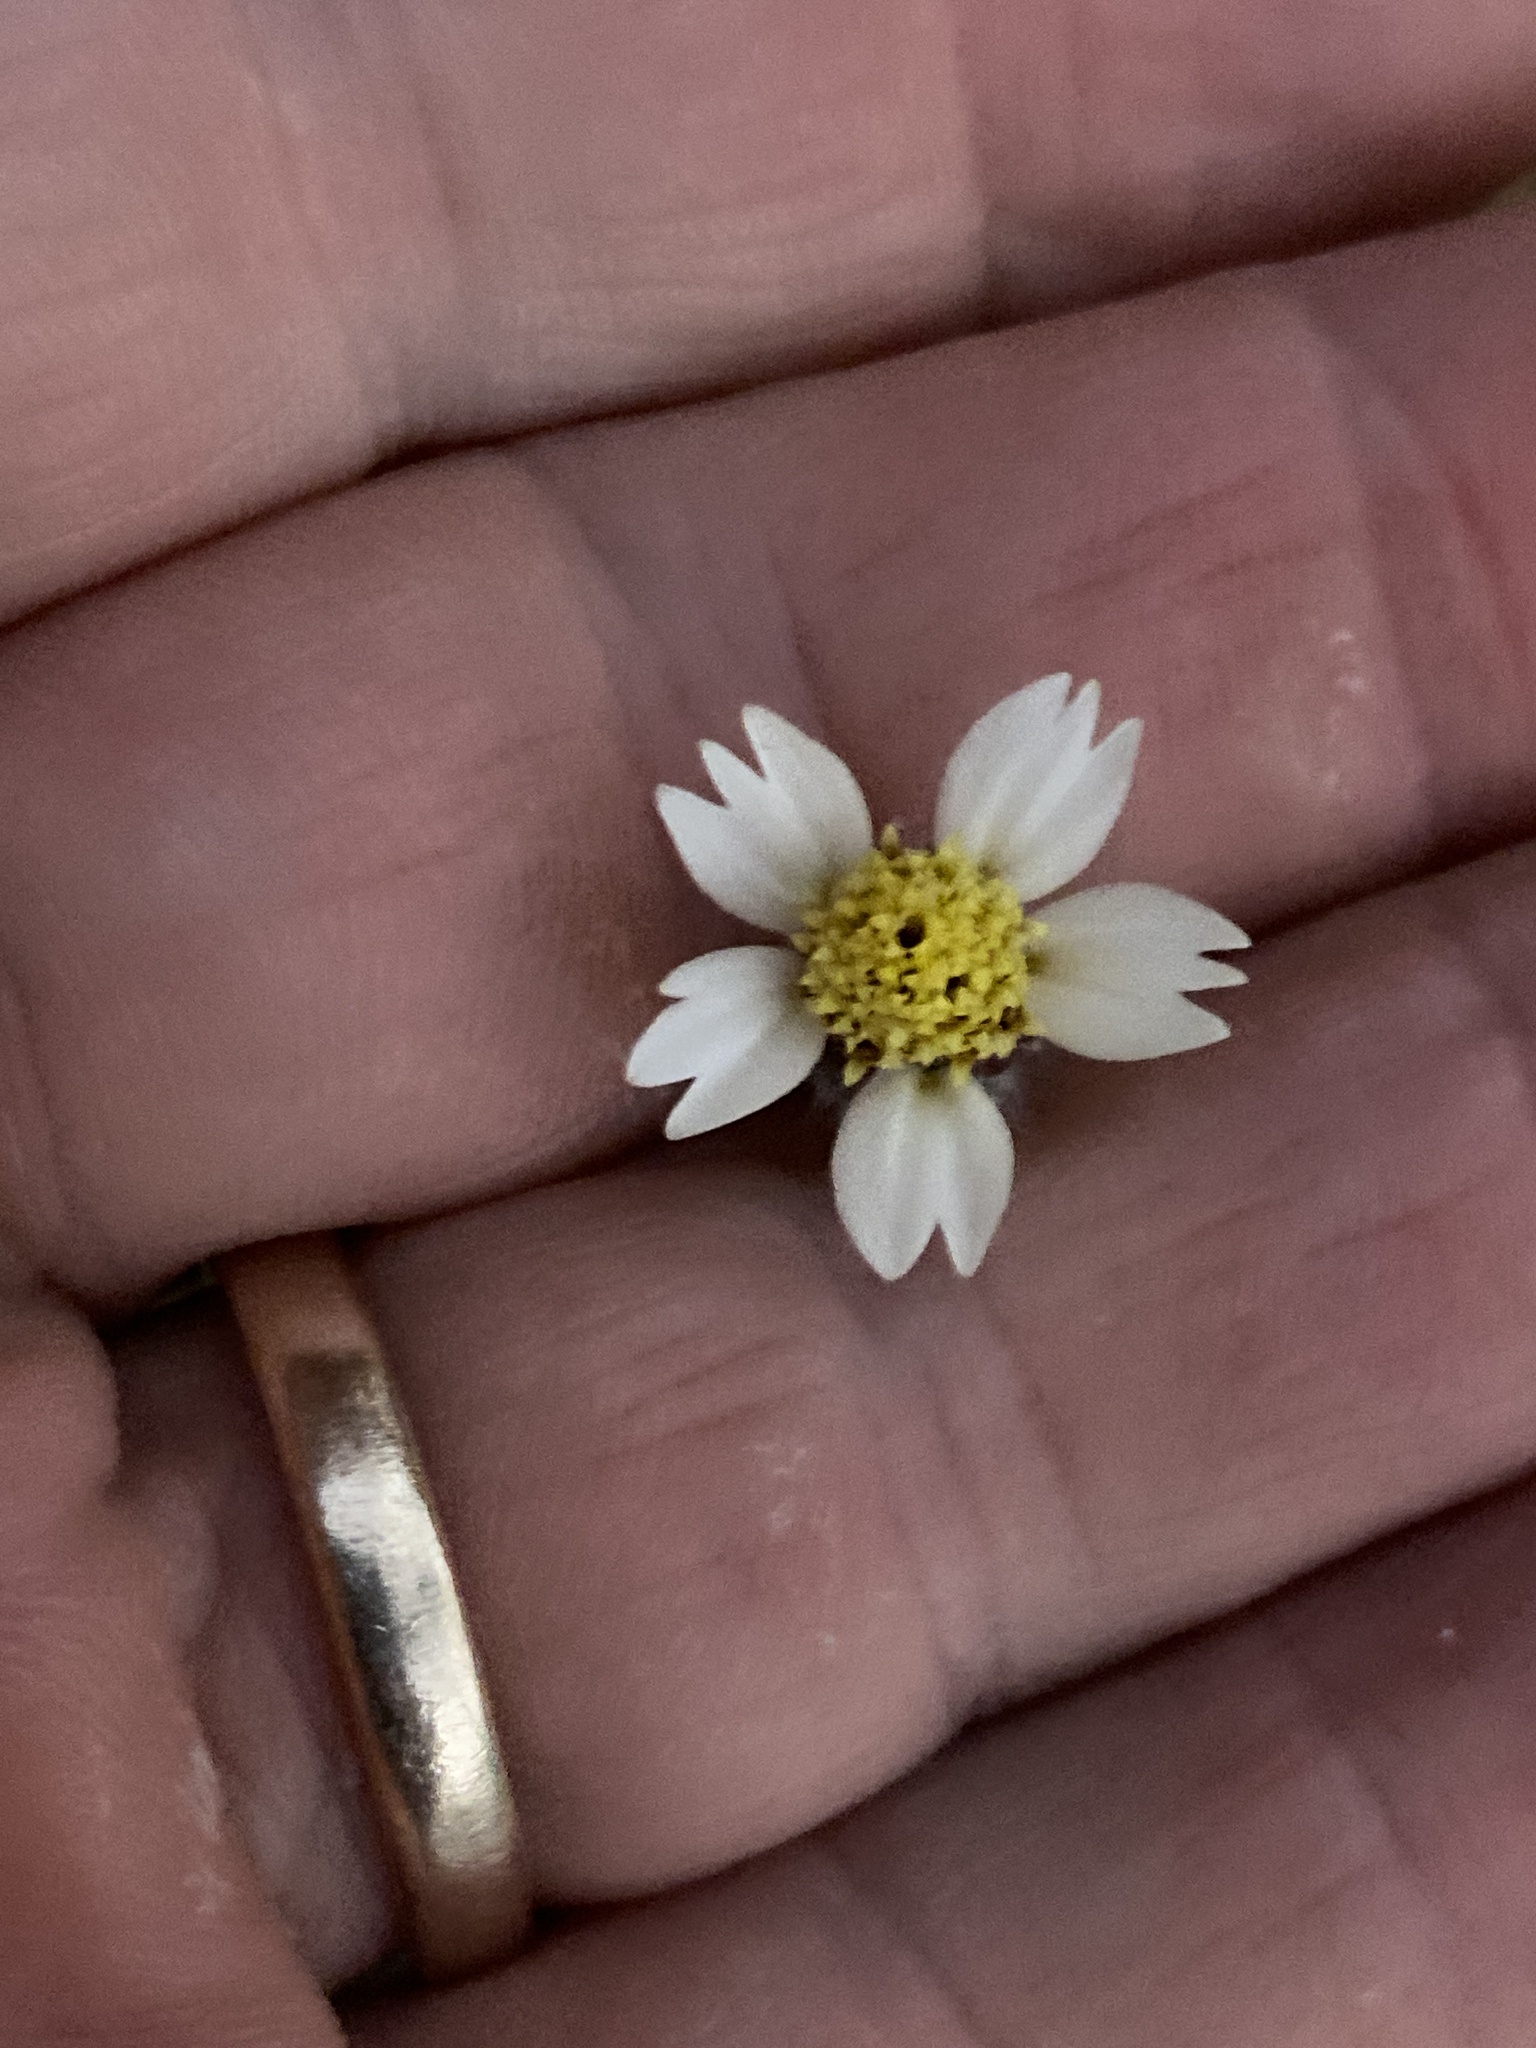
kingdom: Plantae
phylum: Tracheophyta
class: Magnoliopsida
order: Asterales
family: Asteraceae
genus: Tridax
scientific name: Tridax procumbens
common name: Coatbuttons
